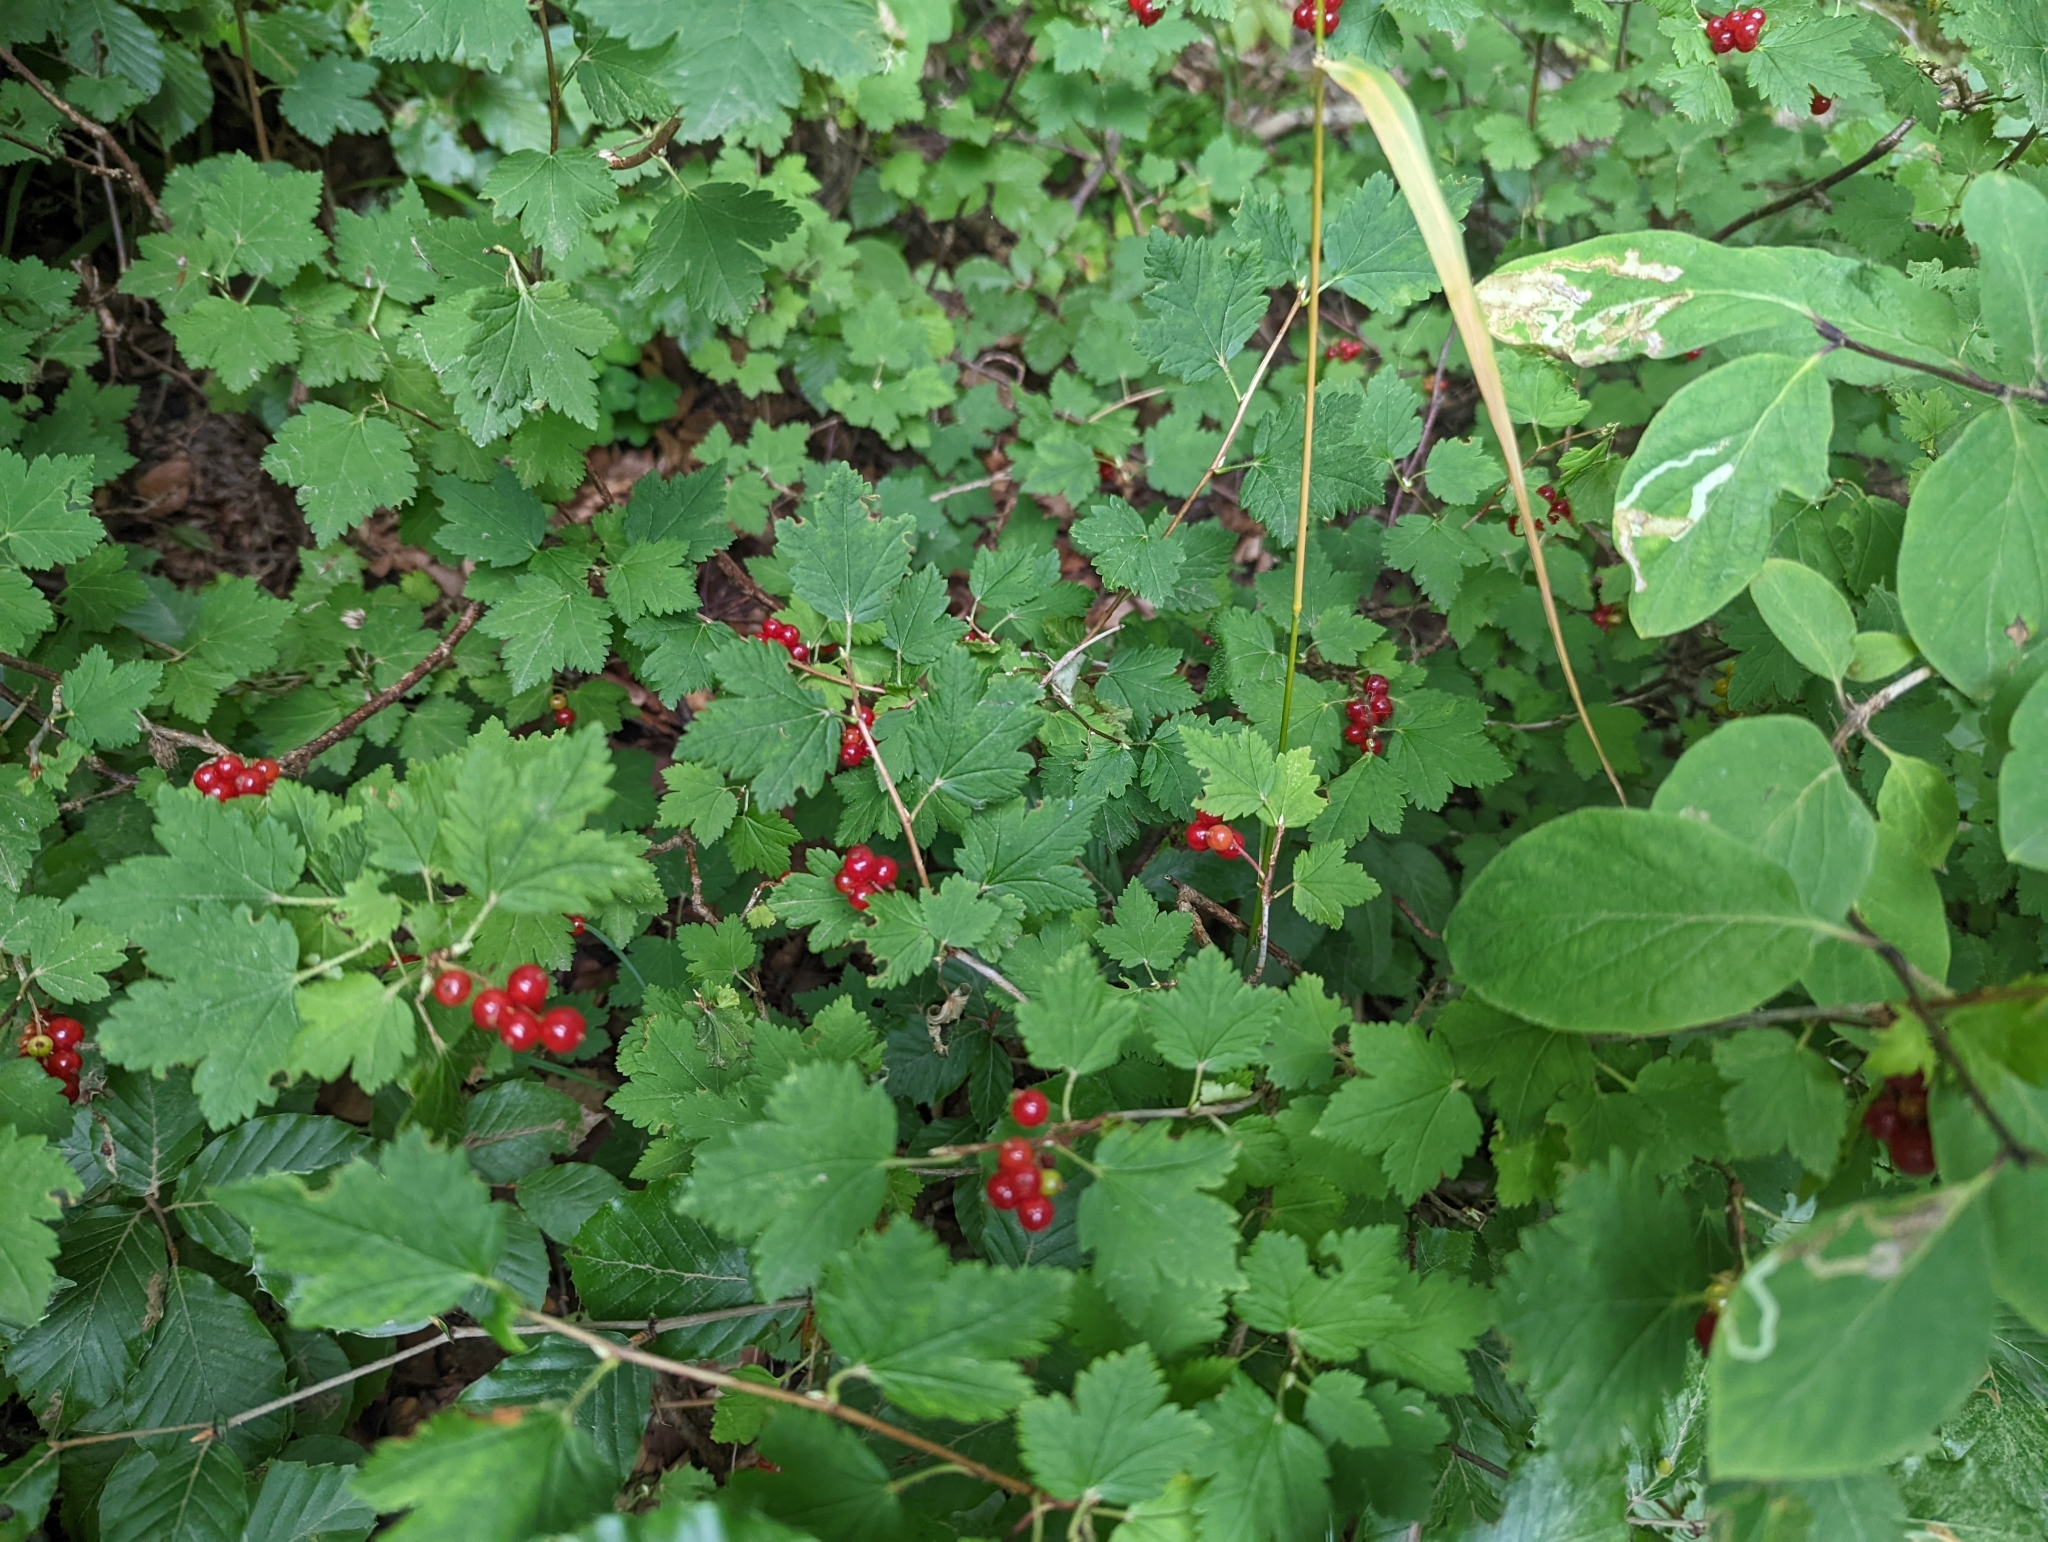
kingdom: Plantae
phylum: Tracheophyta
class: Magnoliopsida
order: Saxifragales
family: Grossulariaceae
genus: Ribes
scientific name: Ribes alpinum
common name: Alpine currant
